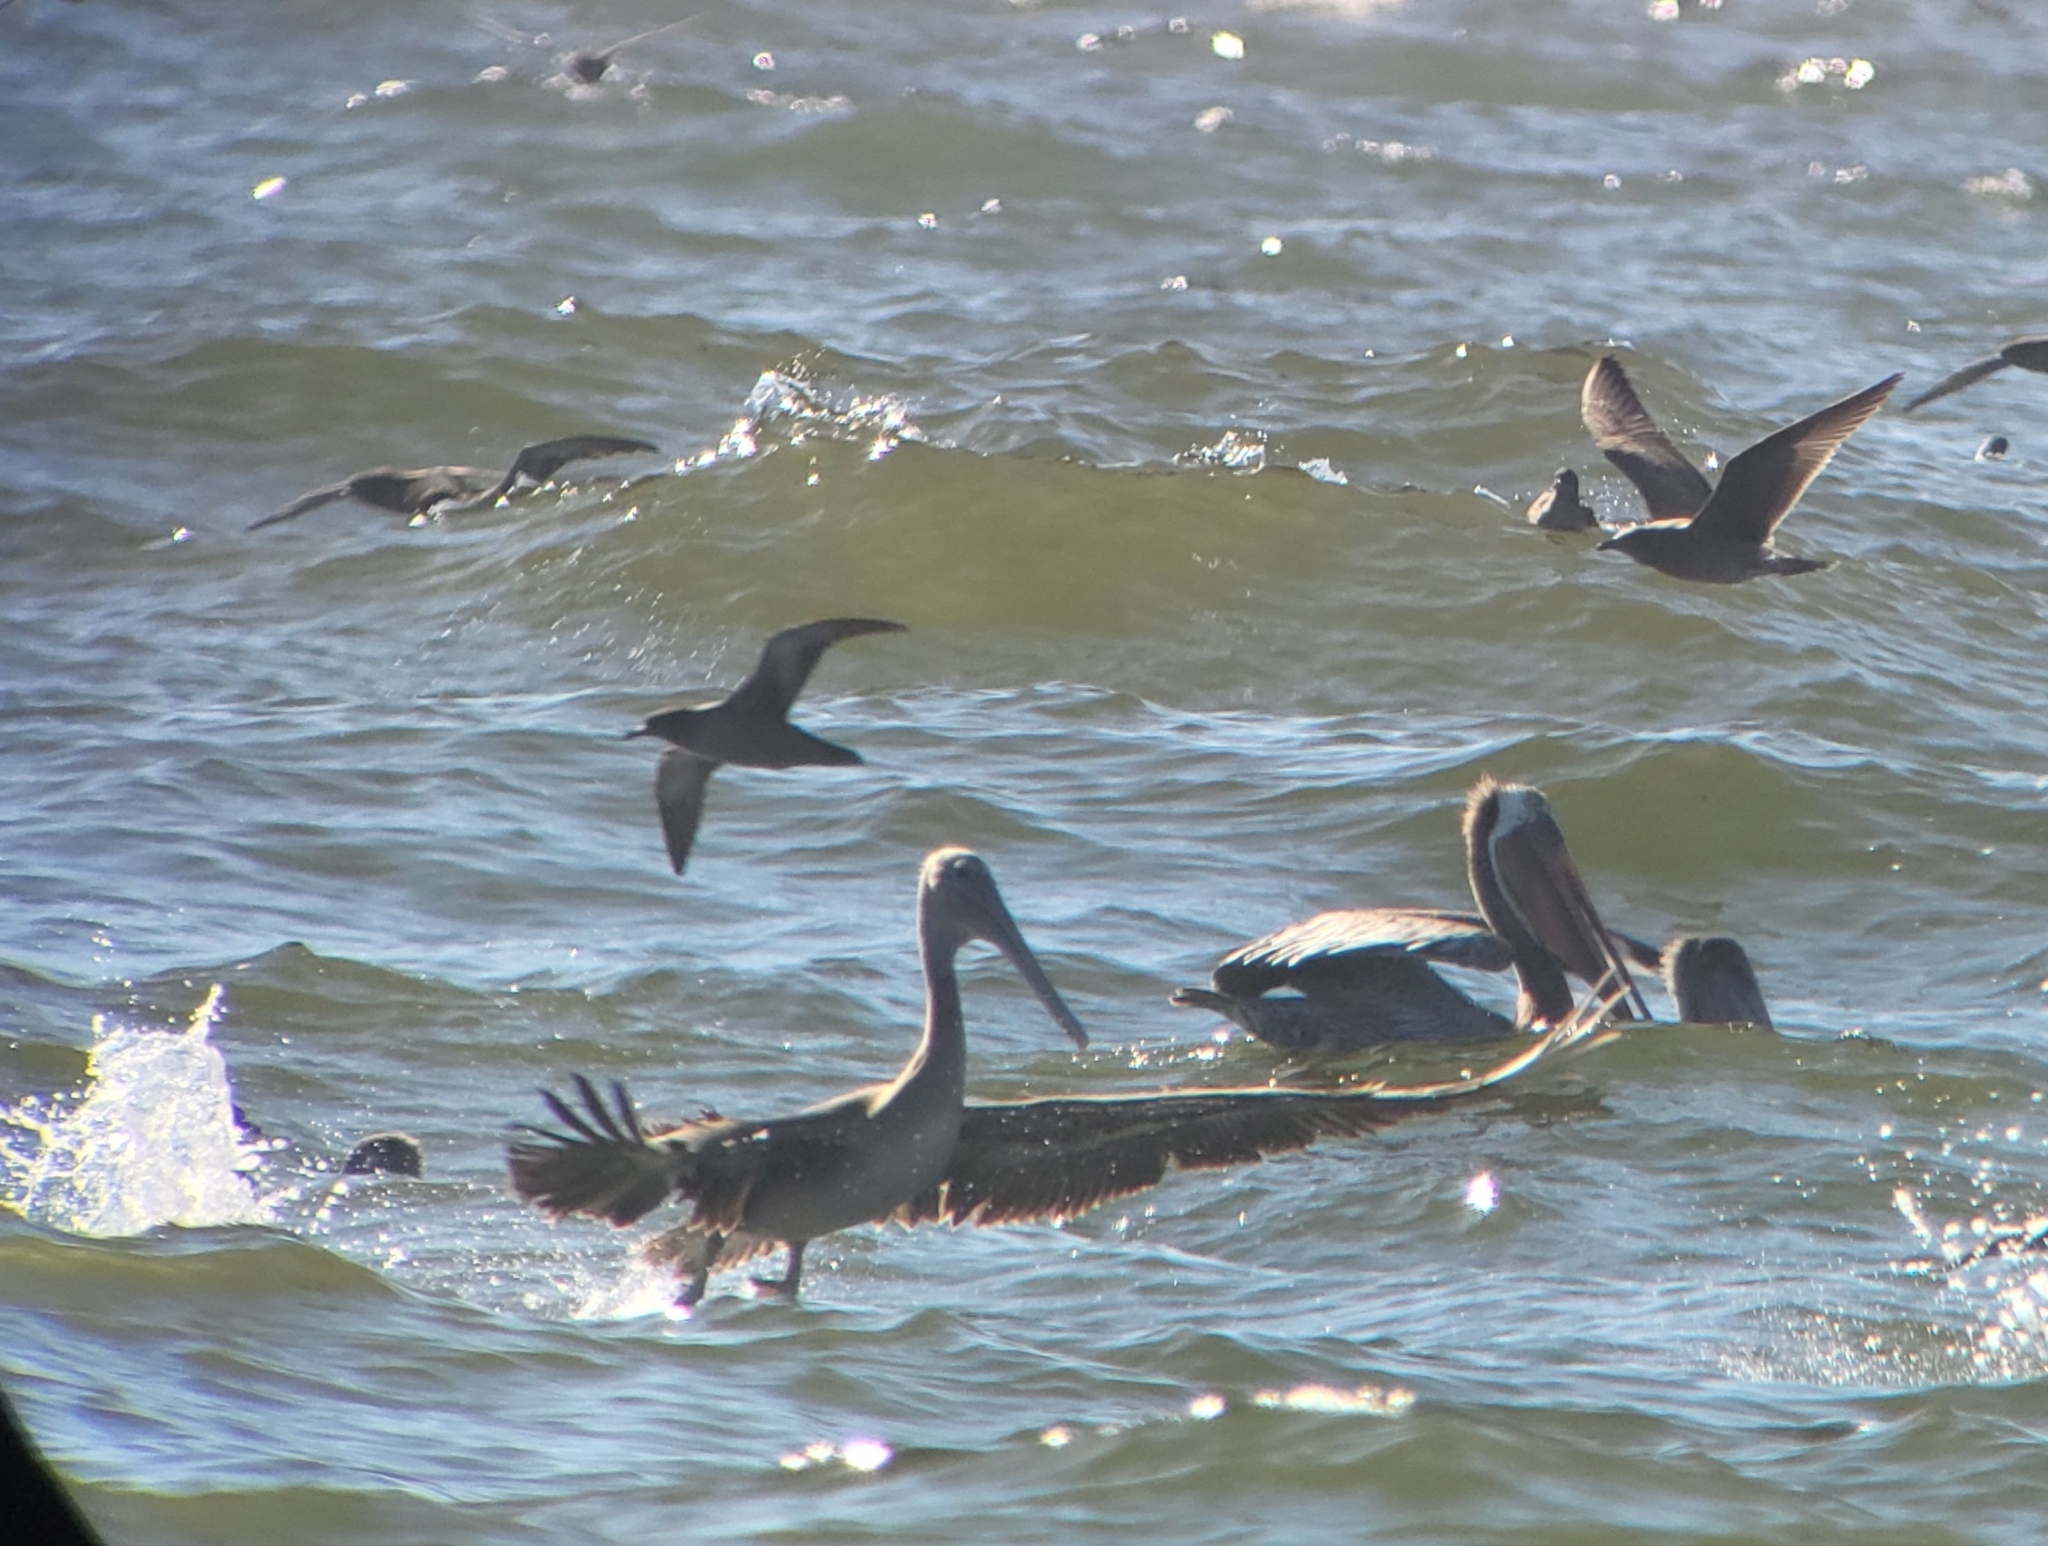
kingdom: Animalia
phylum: Chordata
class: Aves
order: Pelecaniformes
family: Pelecanidae
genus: Pelecanus
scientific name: Pelecanus occidentalis
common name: Brown pelican
